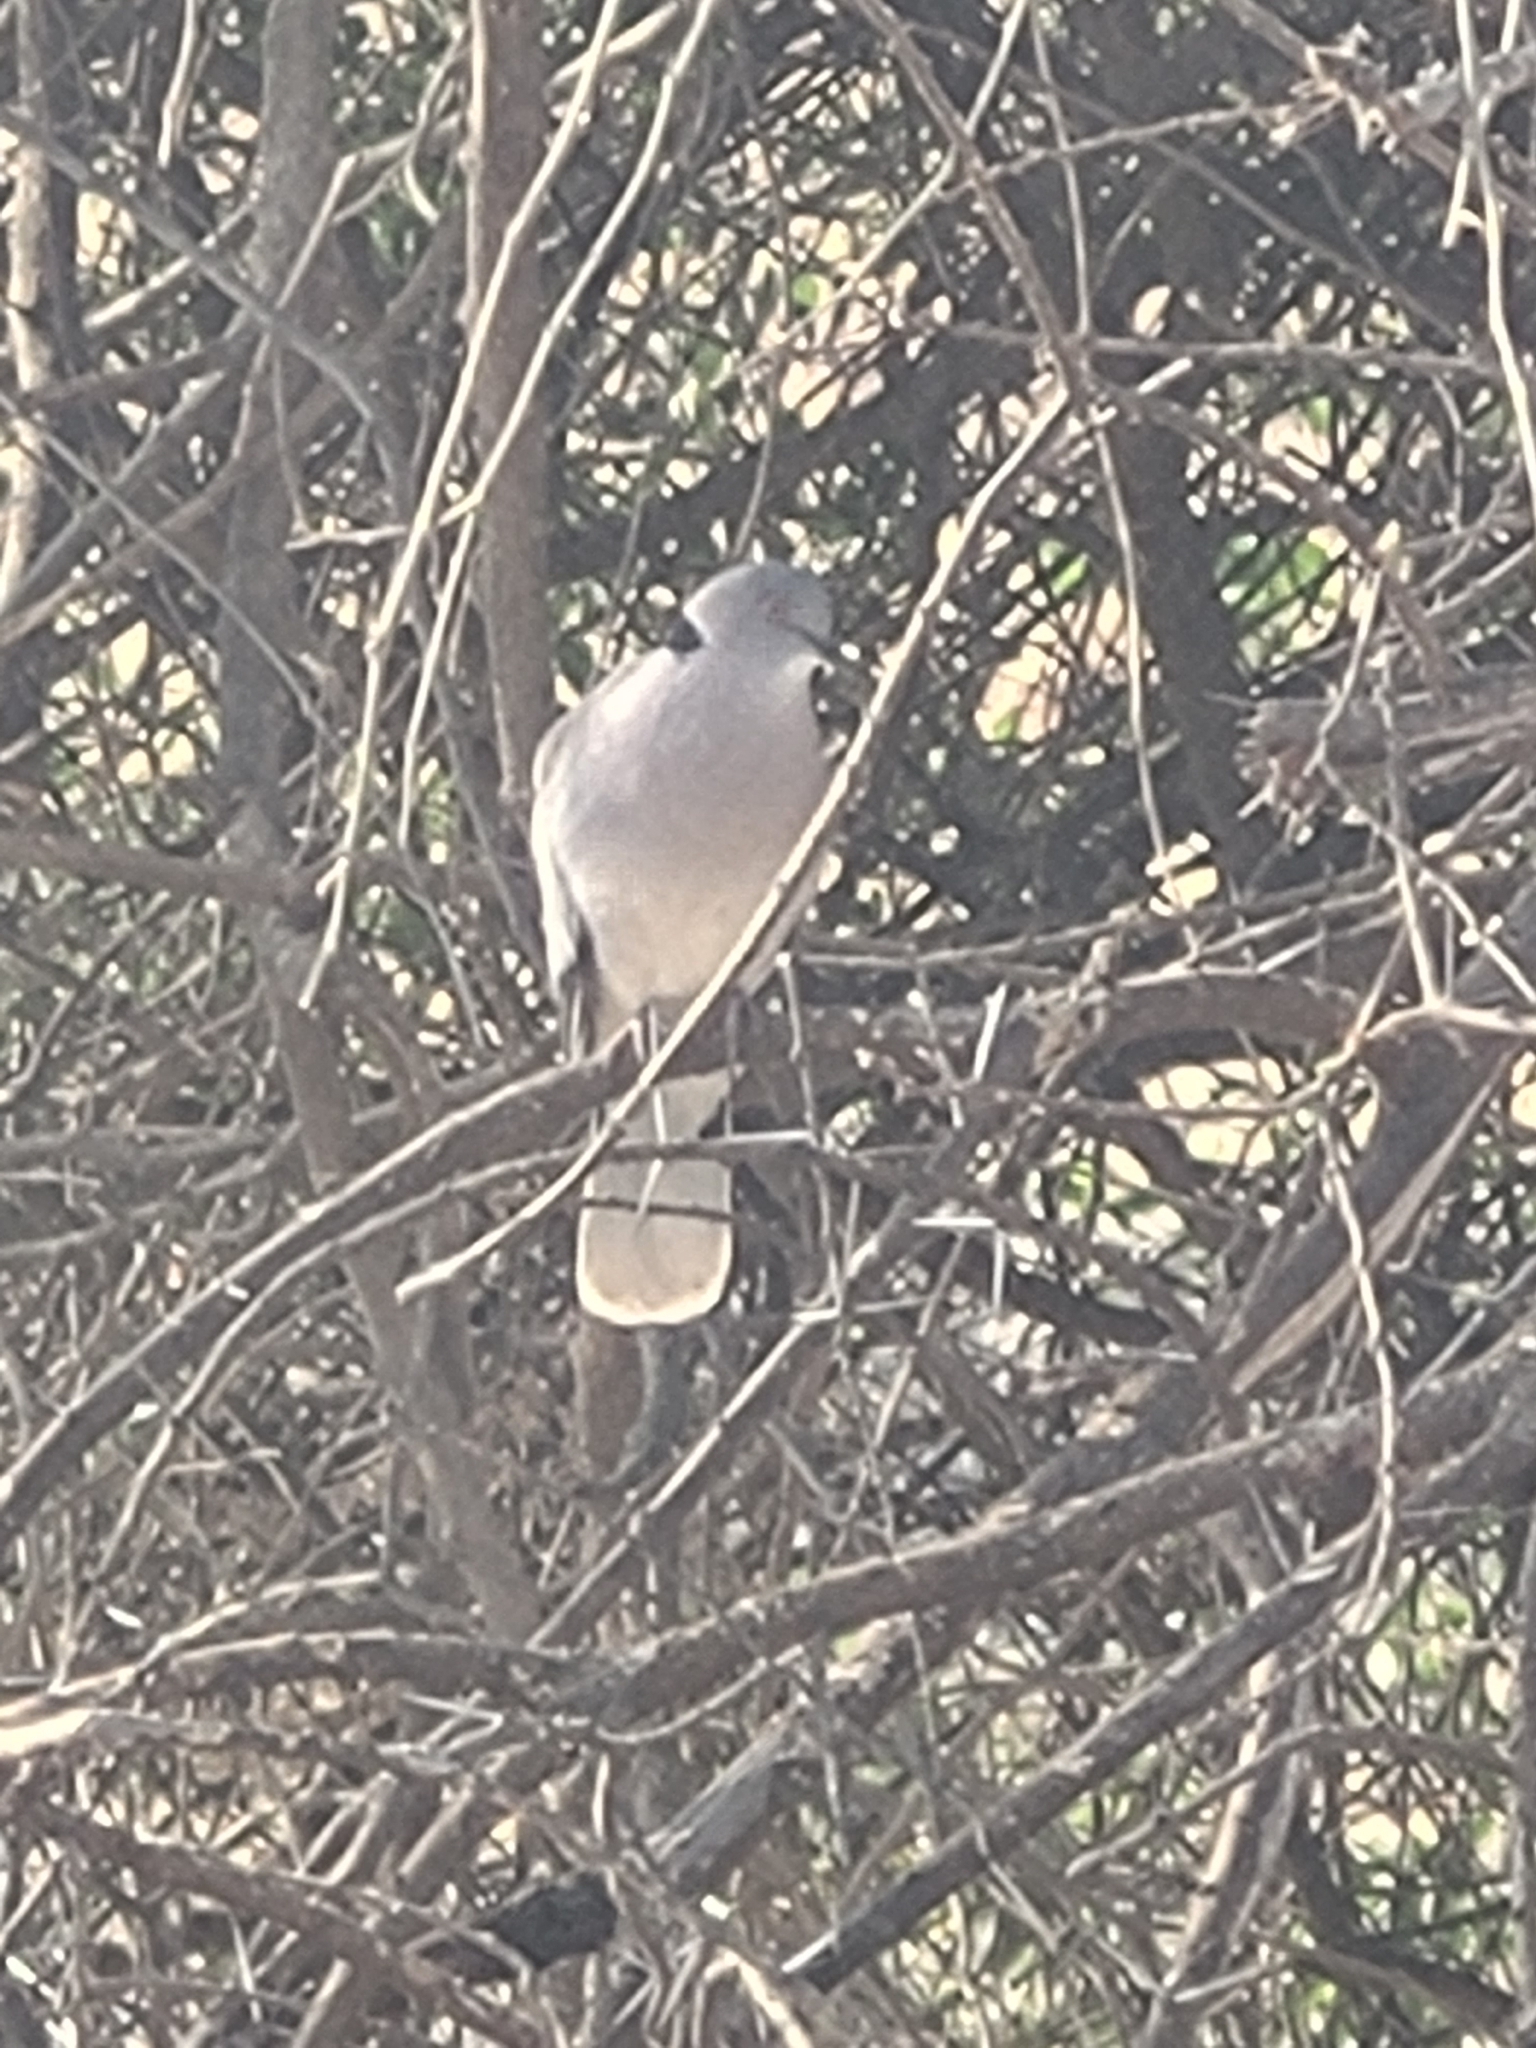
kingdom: Animalia
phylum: Chordata
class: Aves
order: Columbiformes
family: Columbidae
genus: Streptopelia
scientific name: Streptopelia decipiens
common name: Mourning collared dove
